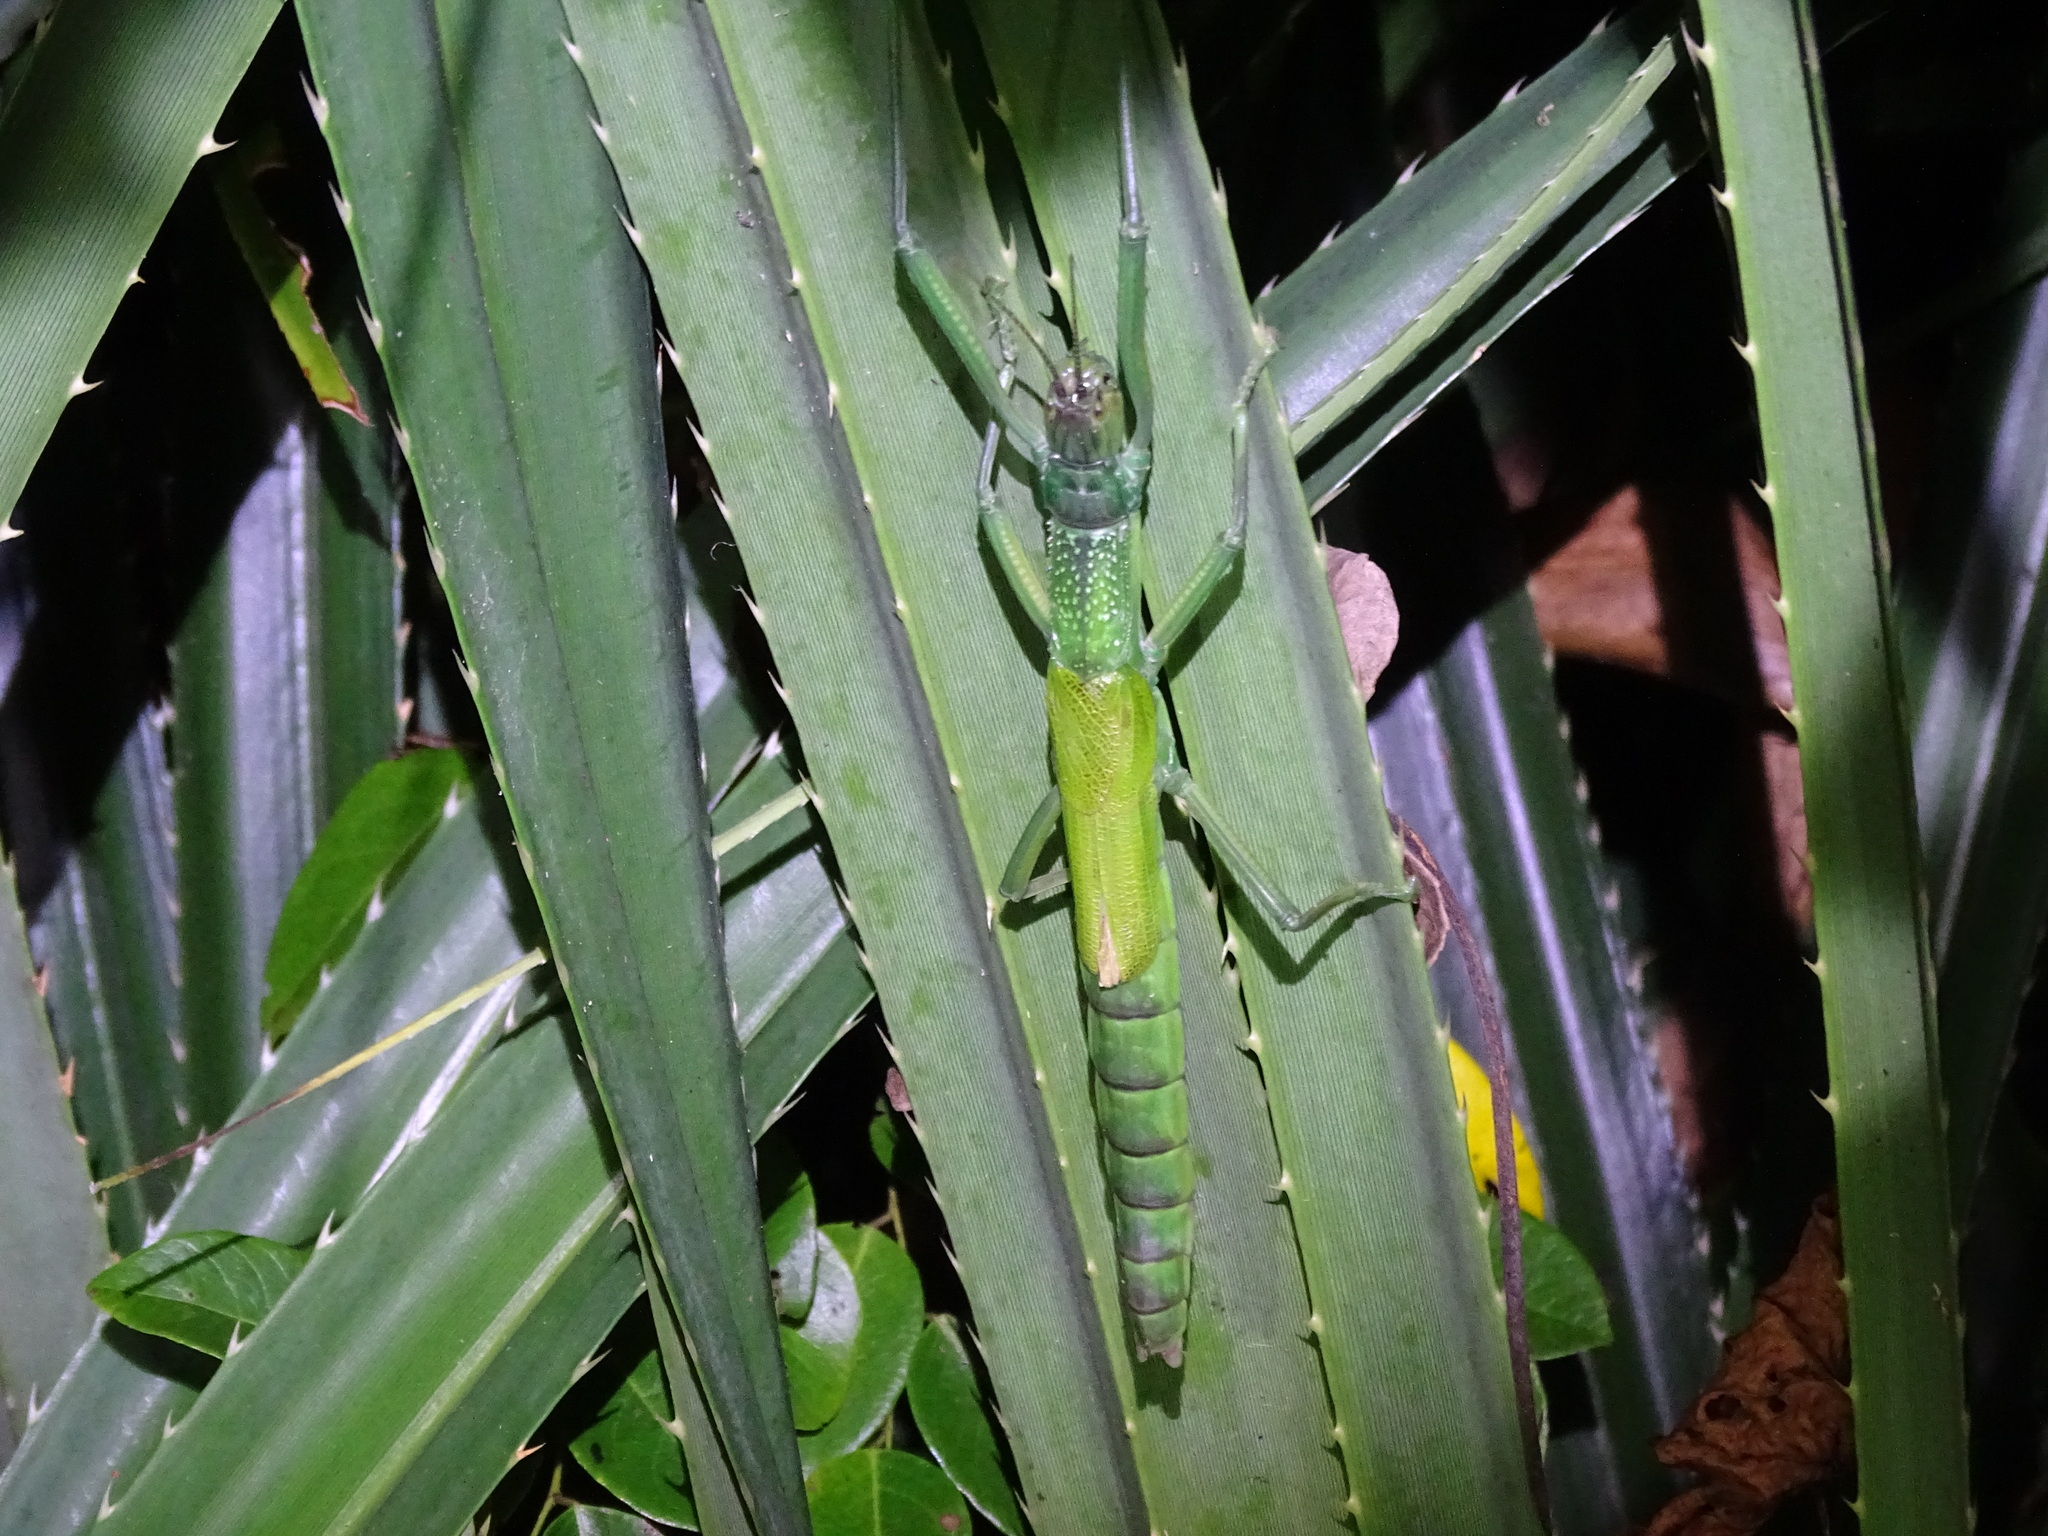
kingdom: Animalia
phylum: Arthropoda
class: Insecta
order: Phasmida
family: Phasmatidae
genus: Megacrania
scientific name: Megacrania tsudai
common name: Tsuda's giant stick-insect
